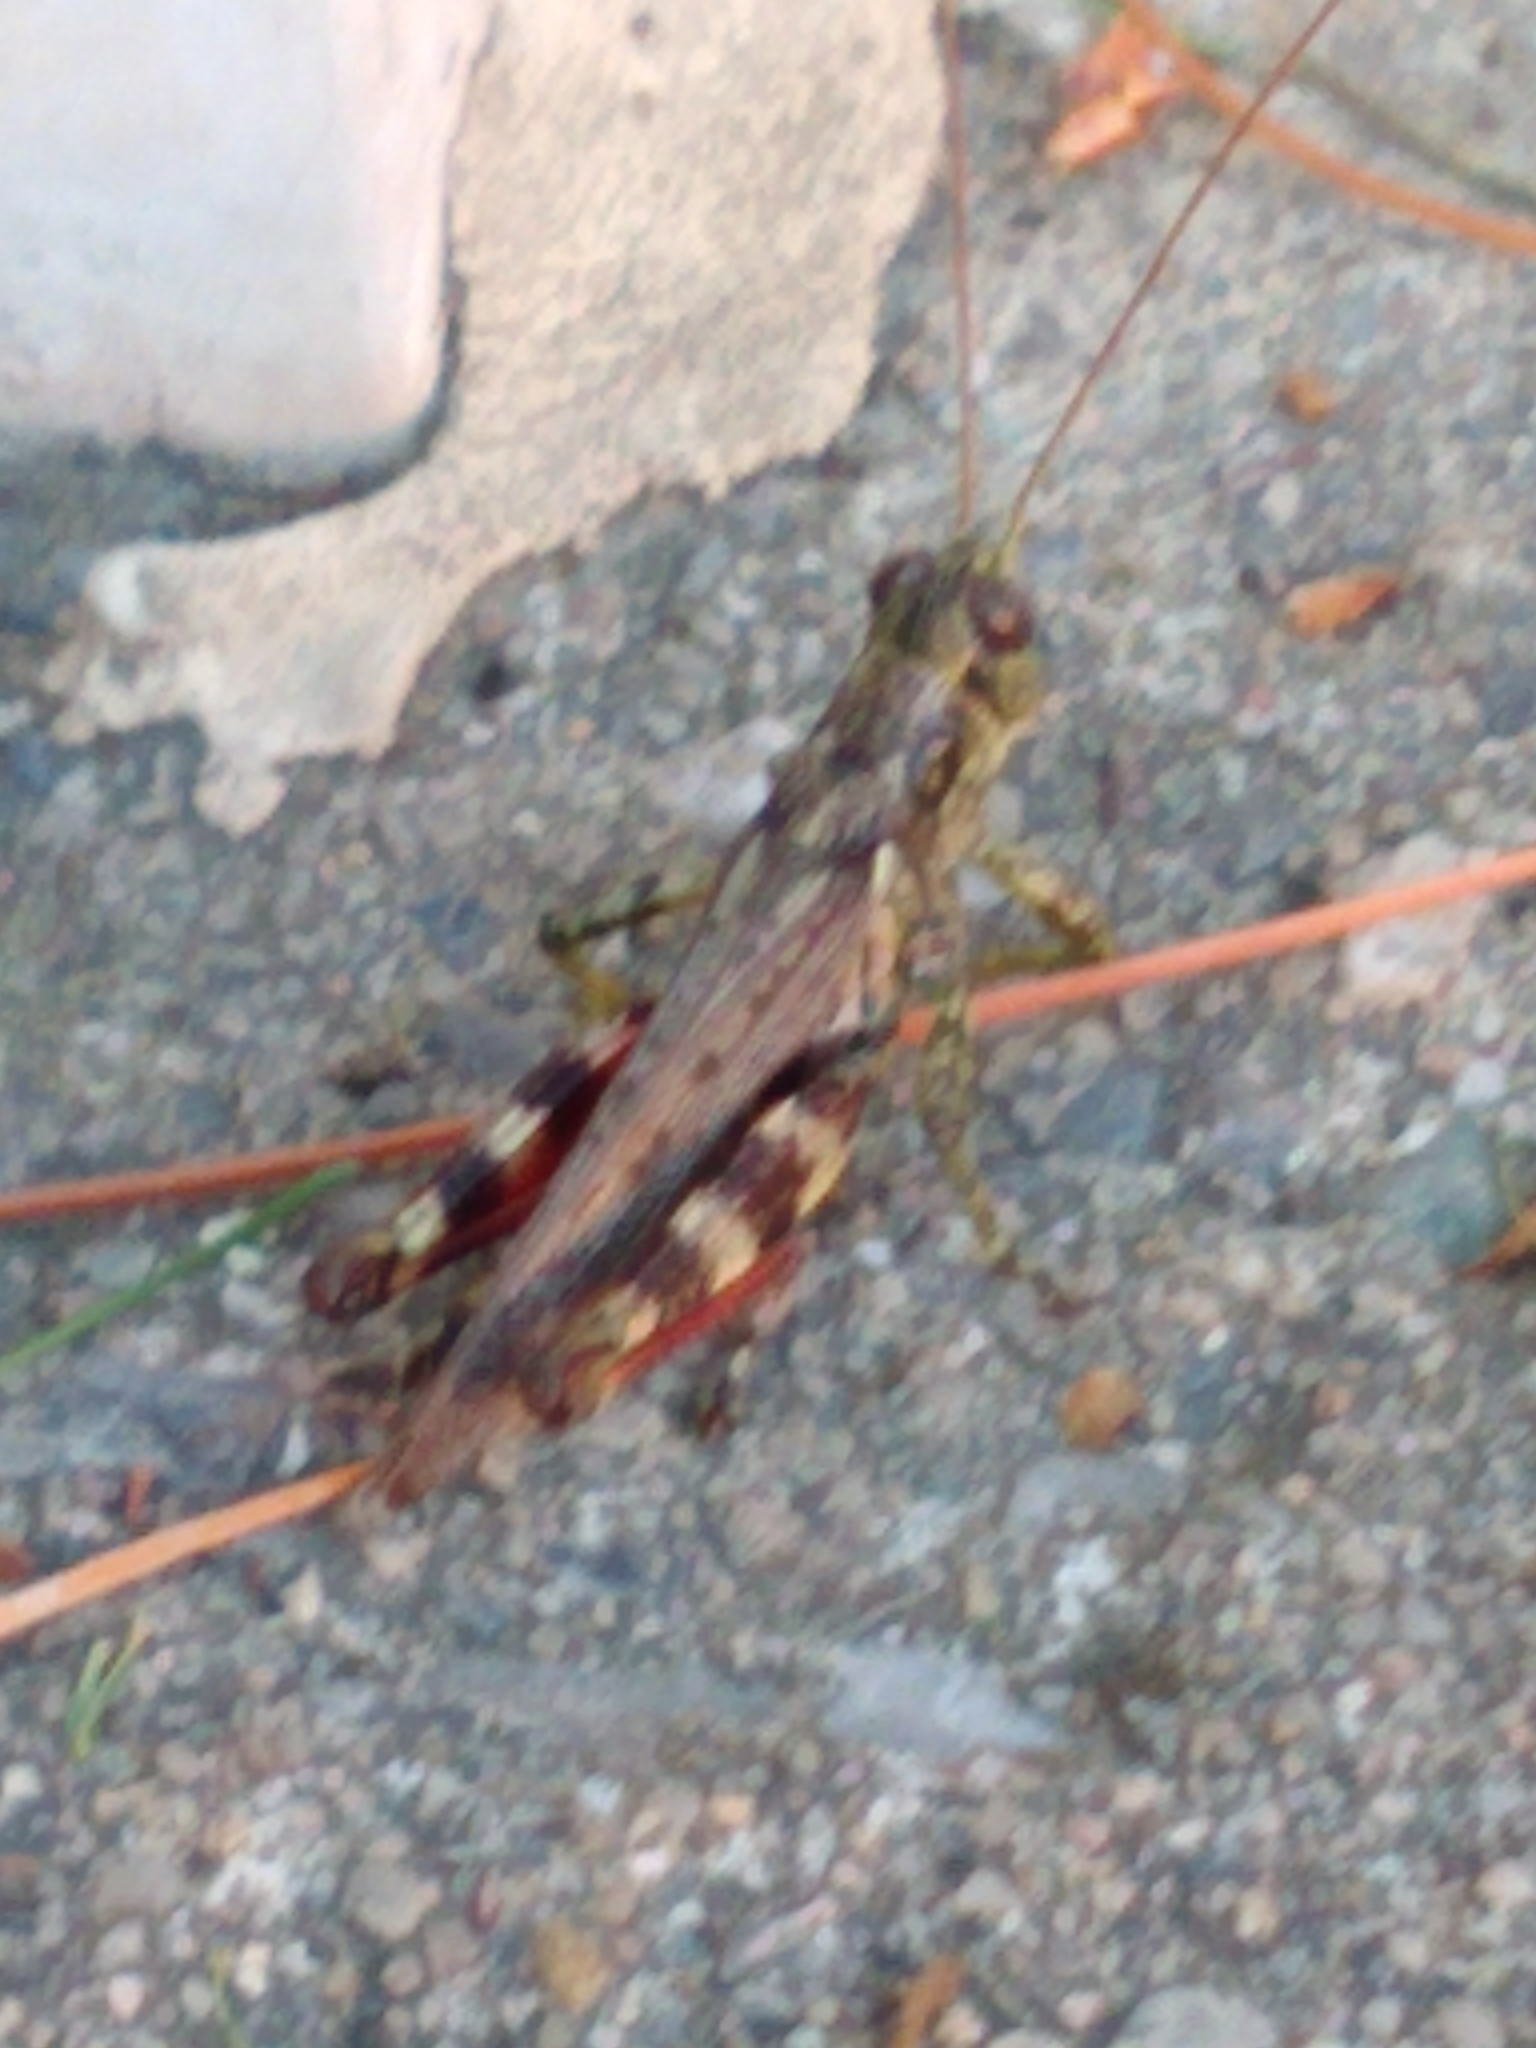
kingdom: Animalia
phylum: Arthropoda
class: Insecta
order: Orthoptera
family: Acrididae
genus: Melanoplus
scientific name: Melanoplus punctulatus
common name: Pine-tree spur-throat grasshopper
